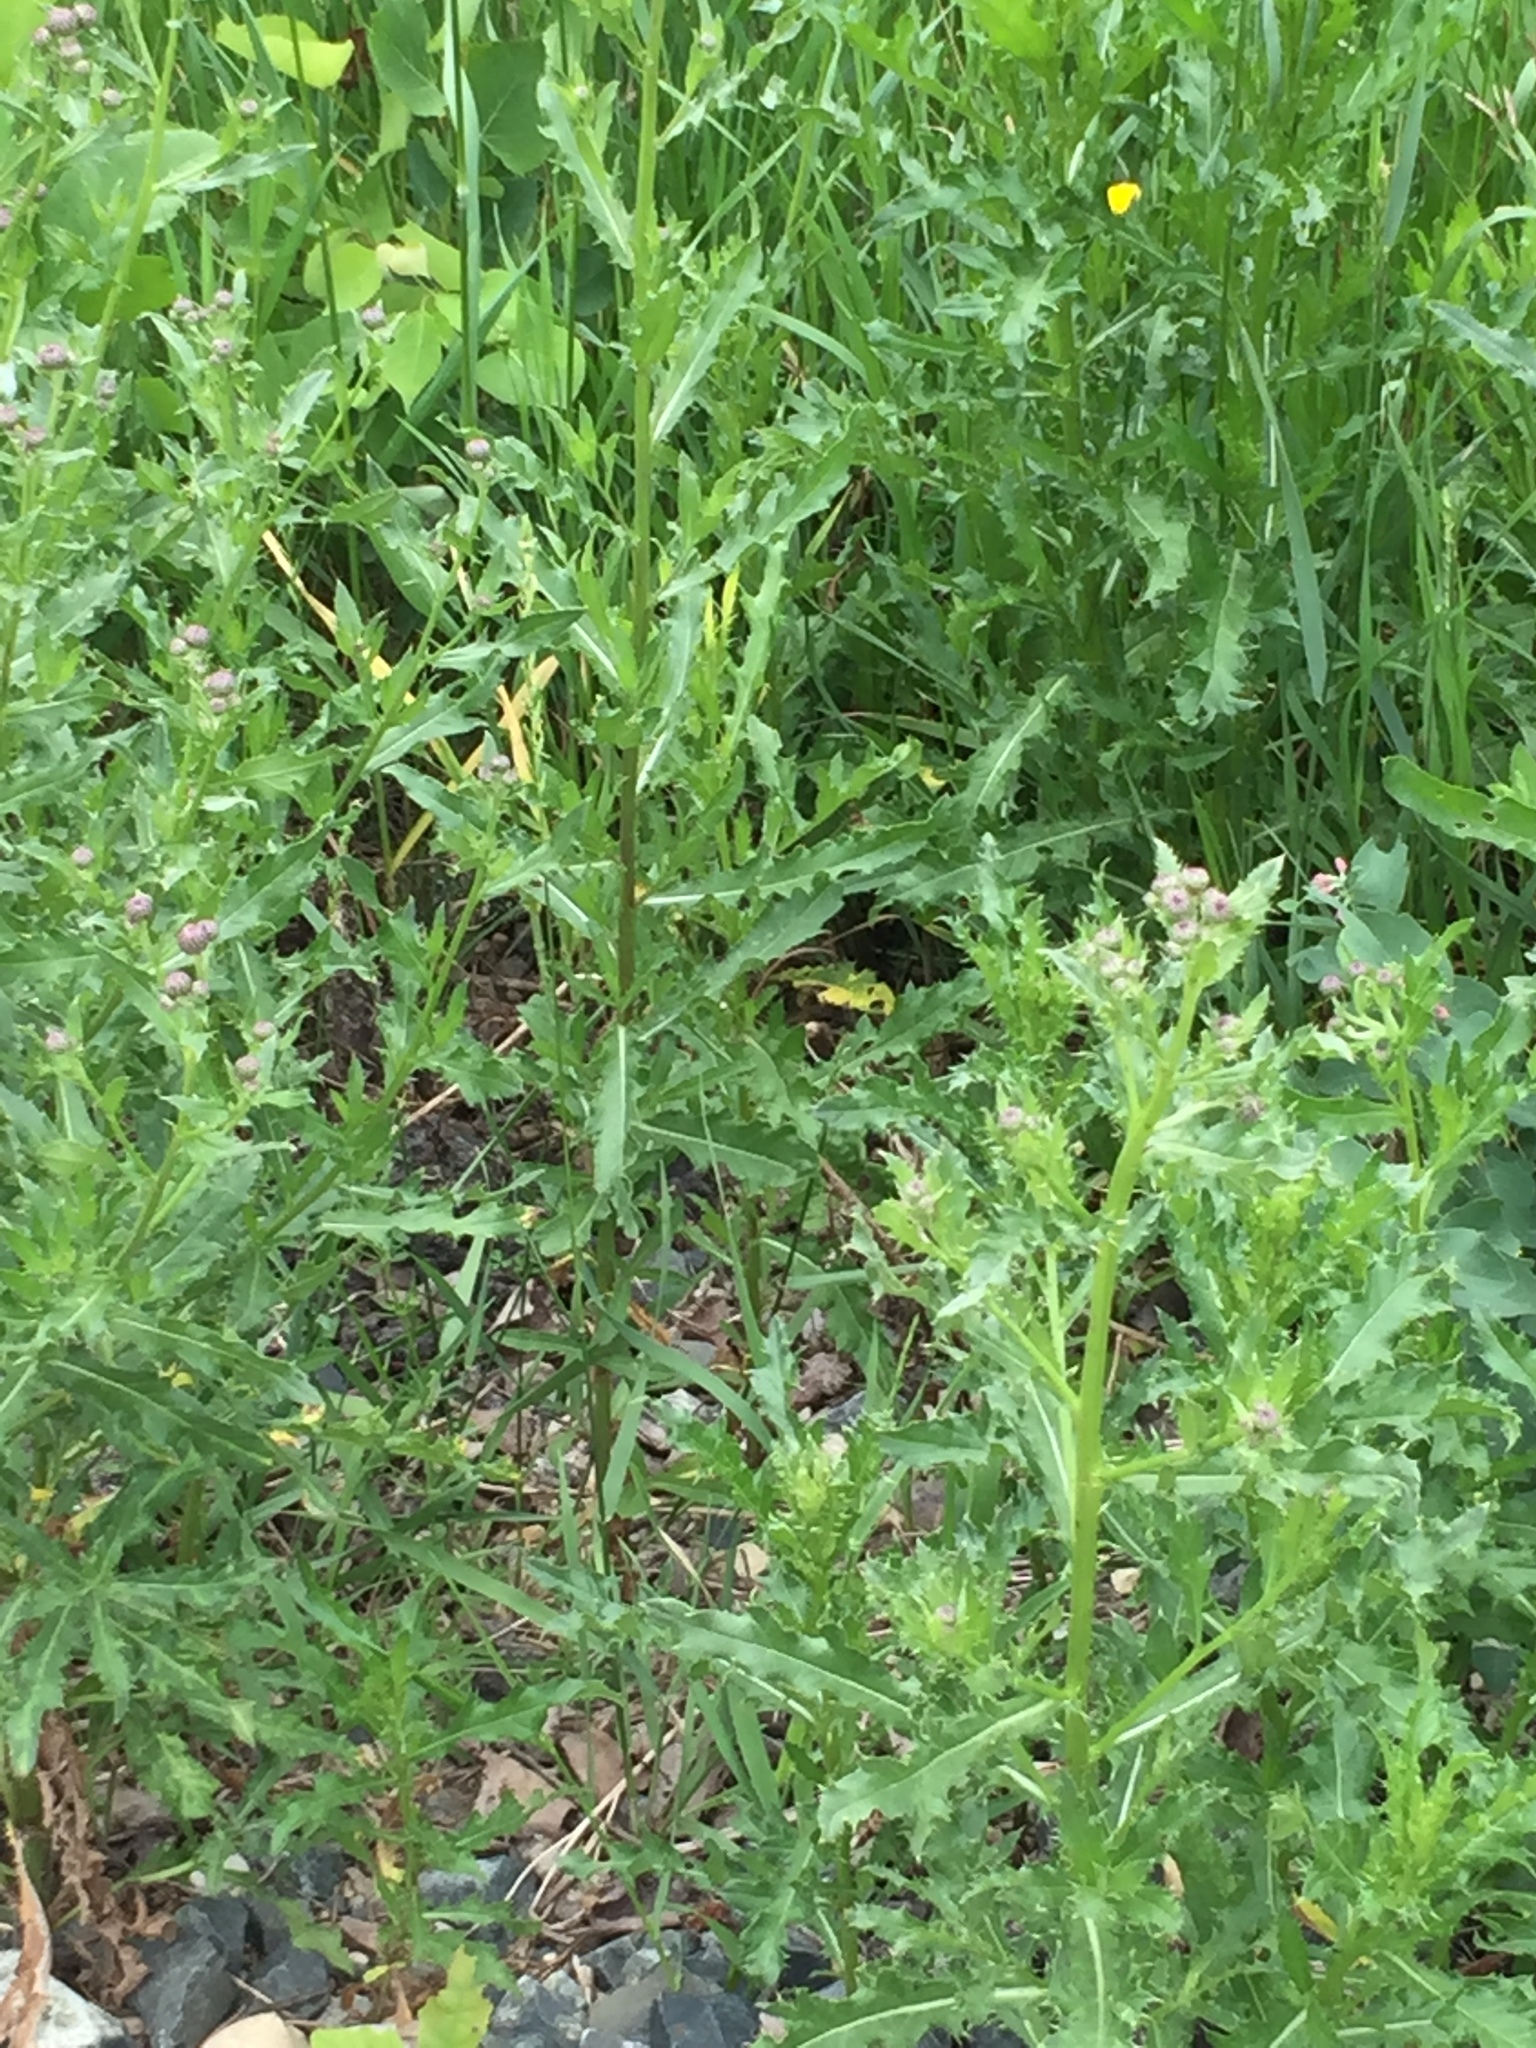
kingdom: Plantae
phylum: Tracheophyta
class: Magnoliopsida
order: Asterales
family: Asteraceae
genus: Cirsium
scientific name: Cirsium arvense
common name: Creeping thistle
